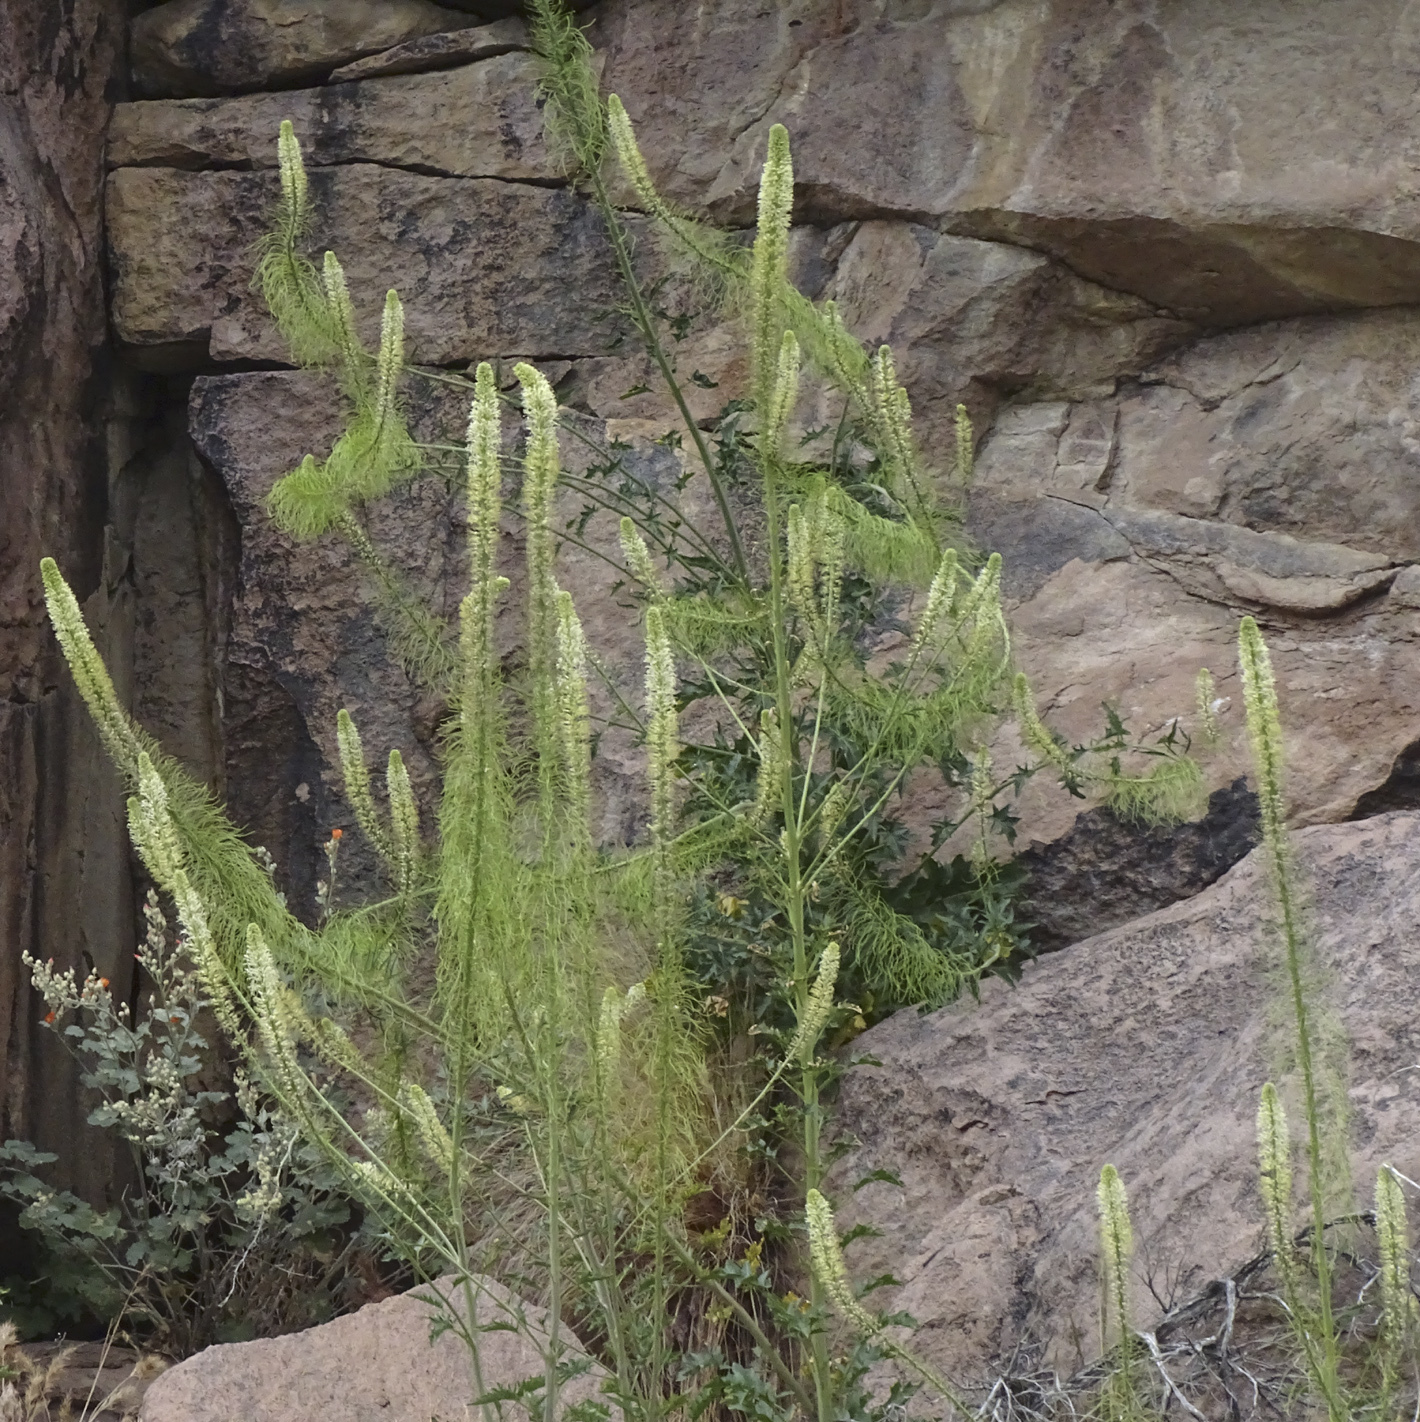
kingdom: Plantae
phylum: Tracheophyta
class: Magnoliopsida
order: Brassicales
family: Brassicaceae
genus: Thelypodium
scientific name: Thelypodium laciniatum
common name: Cut-leaved thelypody
